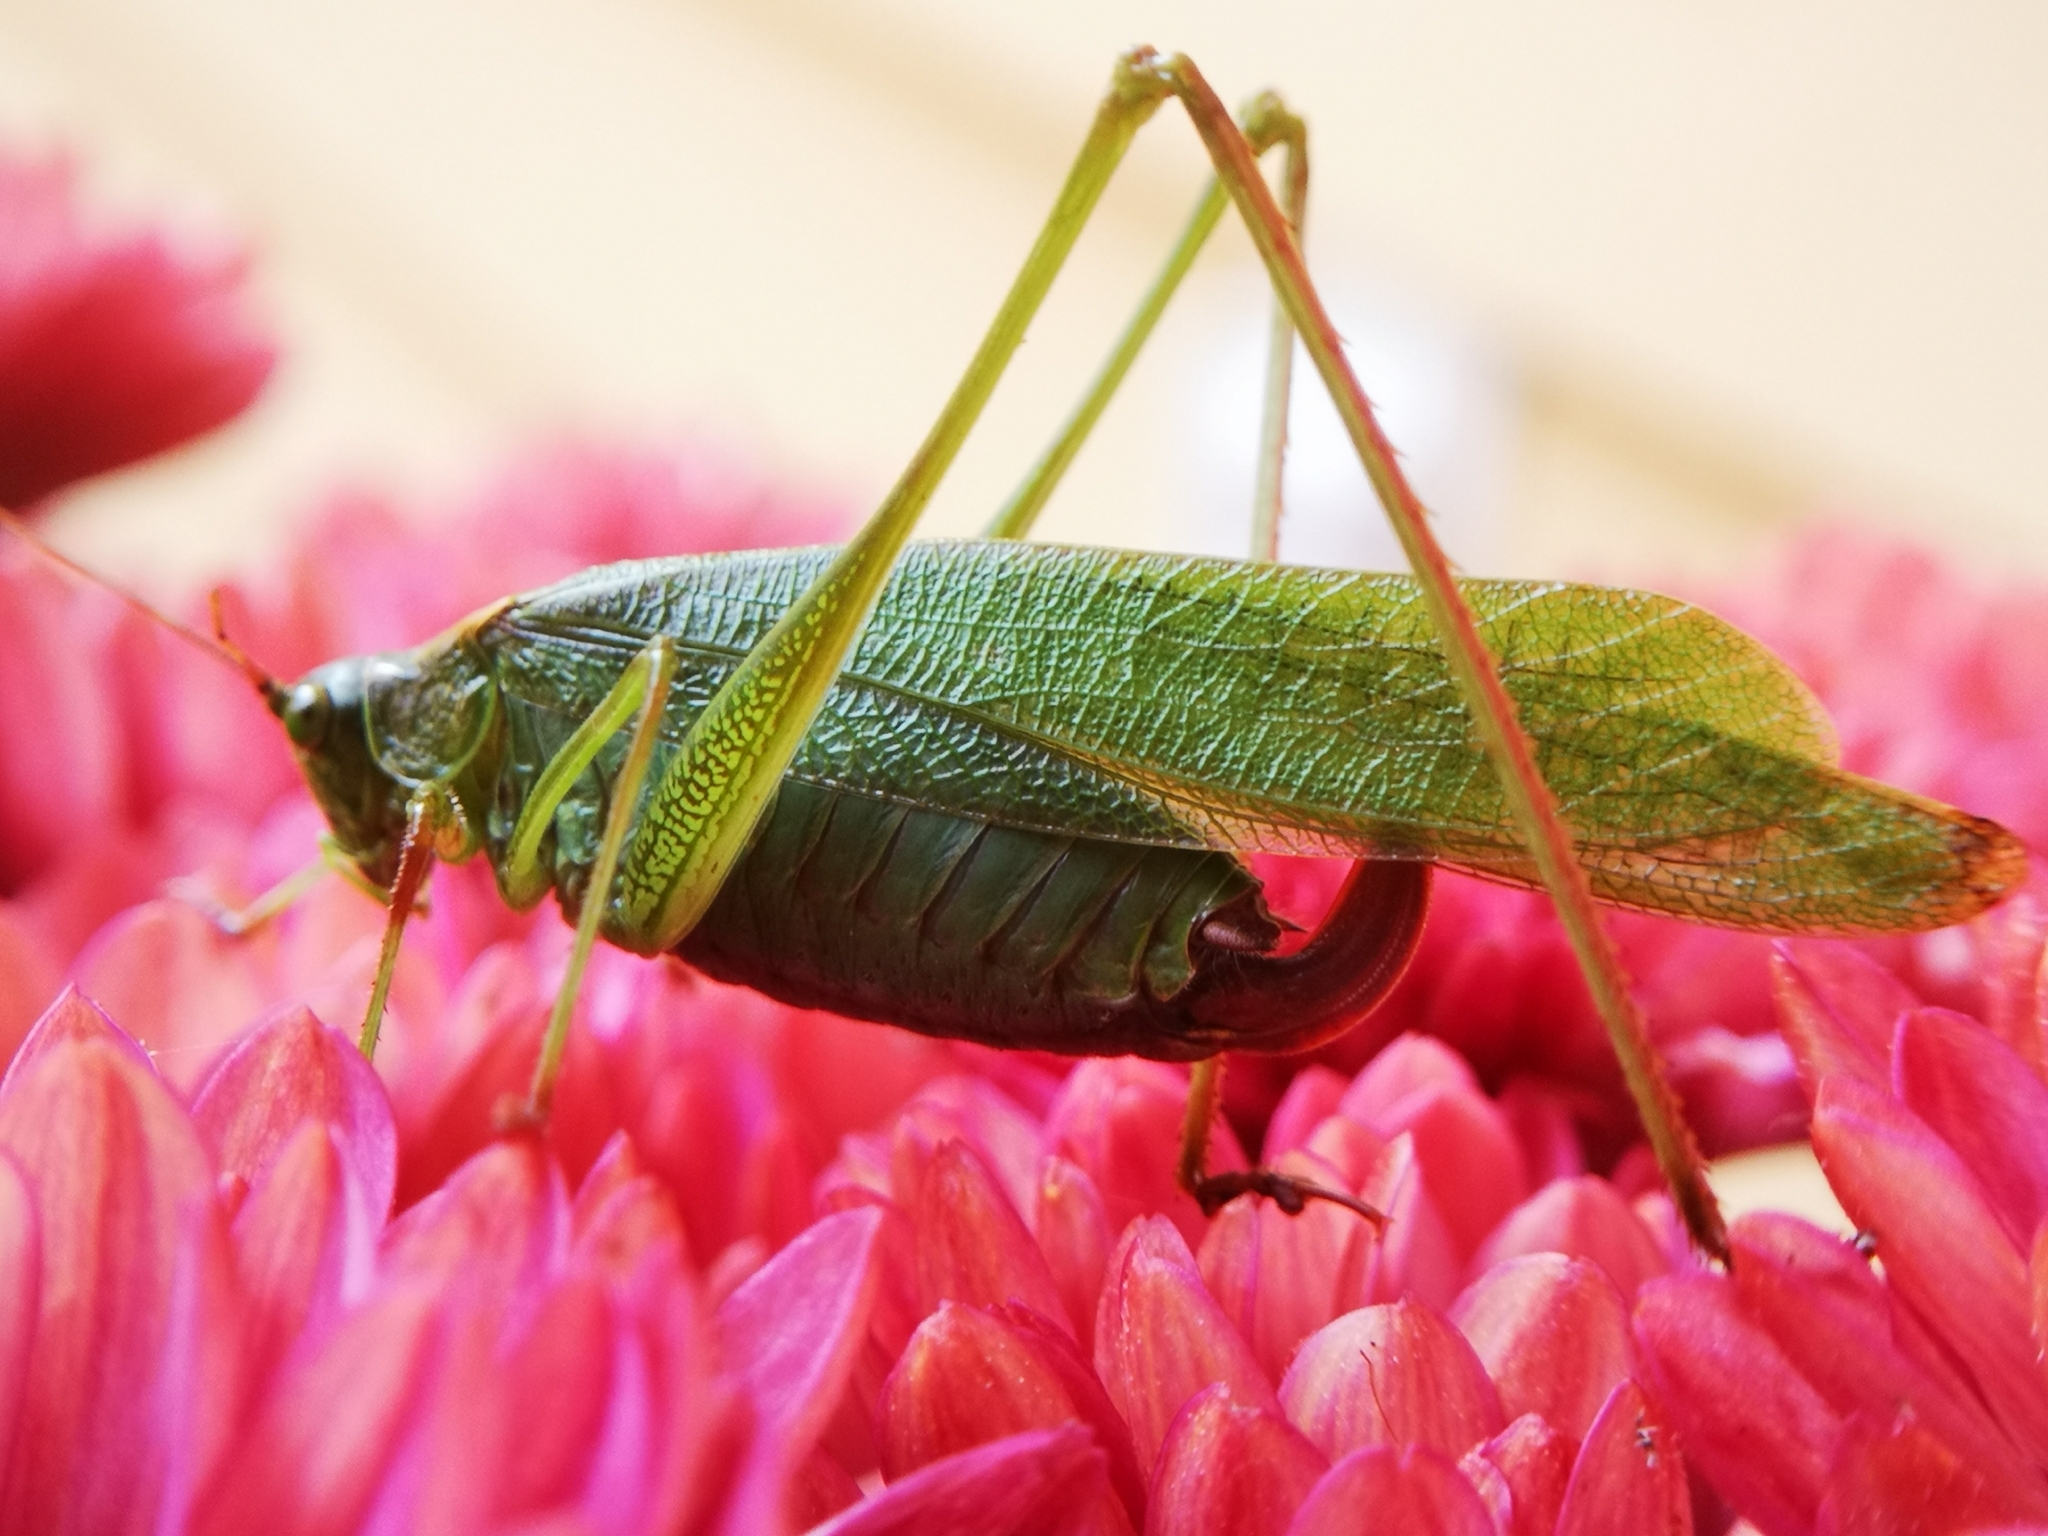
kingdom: Animalia
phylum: Arthropoda
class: Insecta
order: Orthoptera
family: Tettigoniidae
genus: Scudderia
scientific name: Scudderia furcata
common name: Fork-tailed bush katydid
